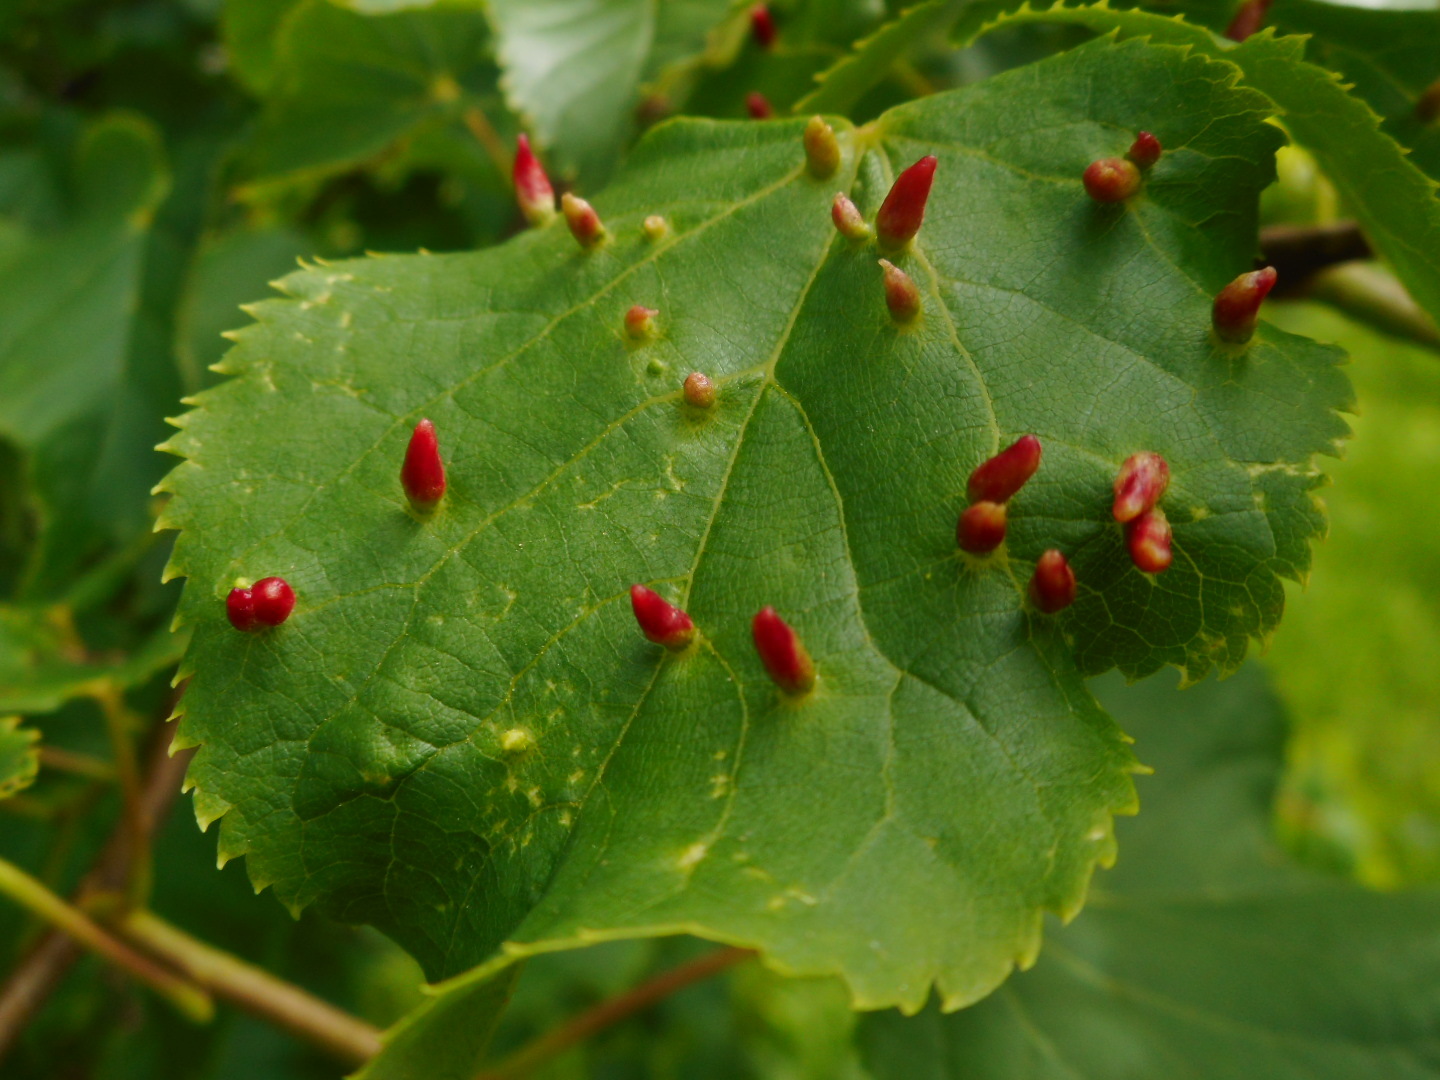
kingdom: Animalia
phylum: Arthropoda
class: Arachnida
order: Trombidiformes
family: Eriophyidae
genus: Eriophyes
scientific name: Eriophyes tiliae
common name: Red nail gall mite
